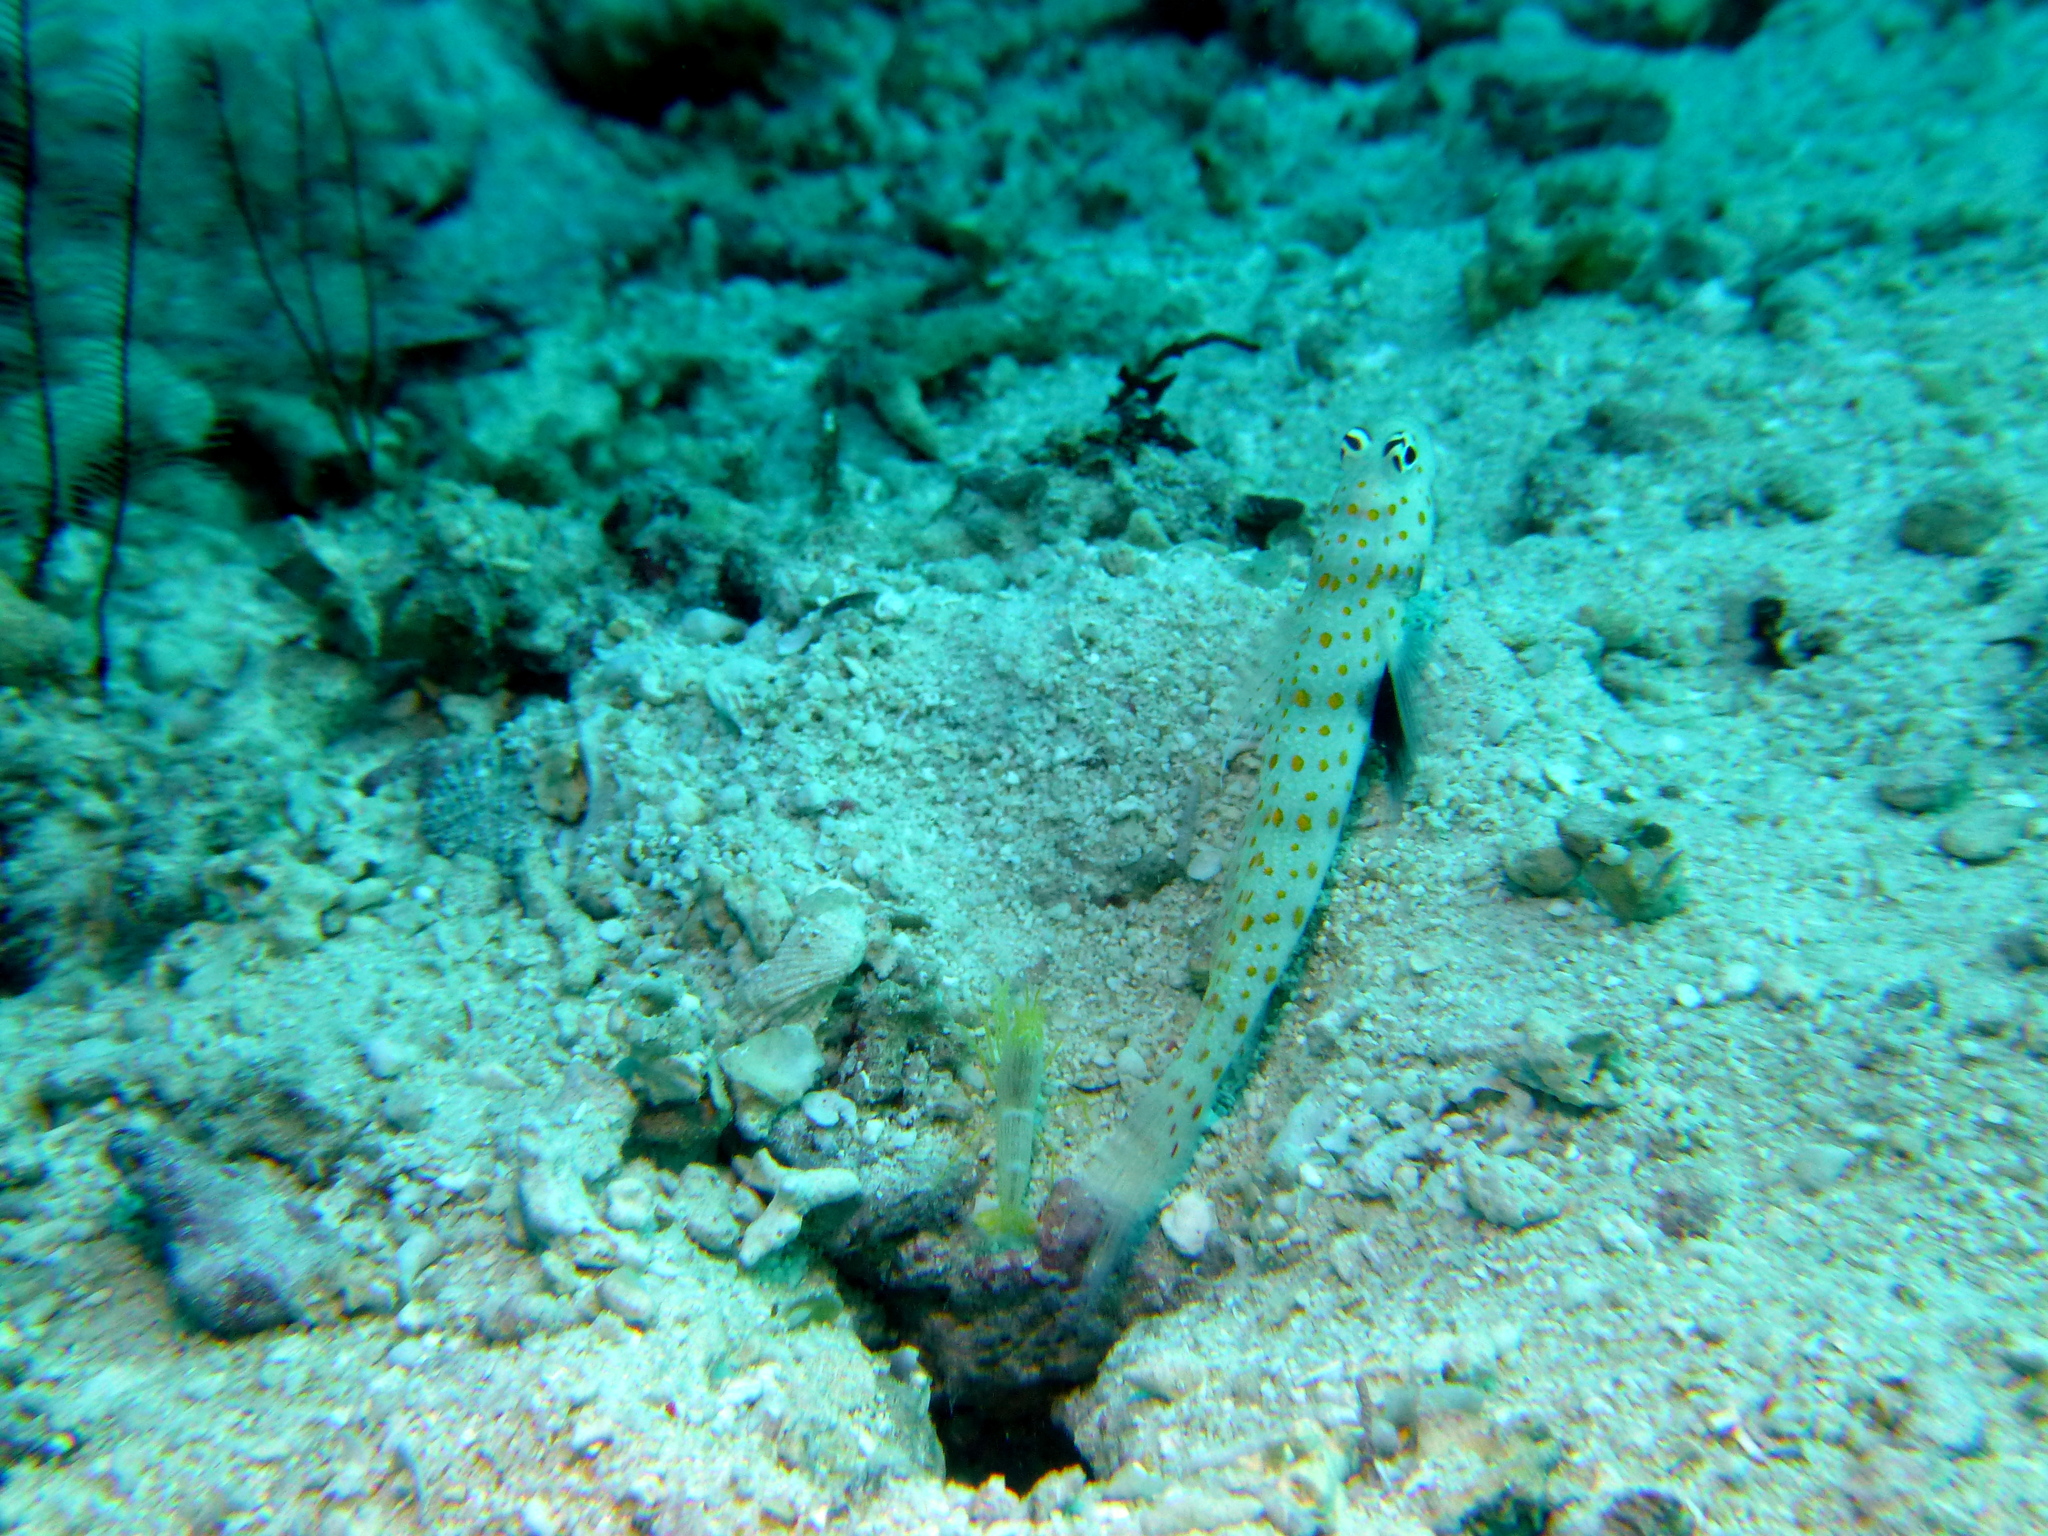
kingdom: Animalia
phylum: Chordata
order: Perciformes
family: Gobiidae
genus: Amblyeleotris
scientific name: Amblyeleotris guttata
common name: Black-chest shrimp-goby
